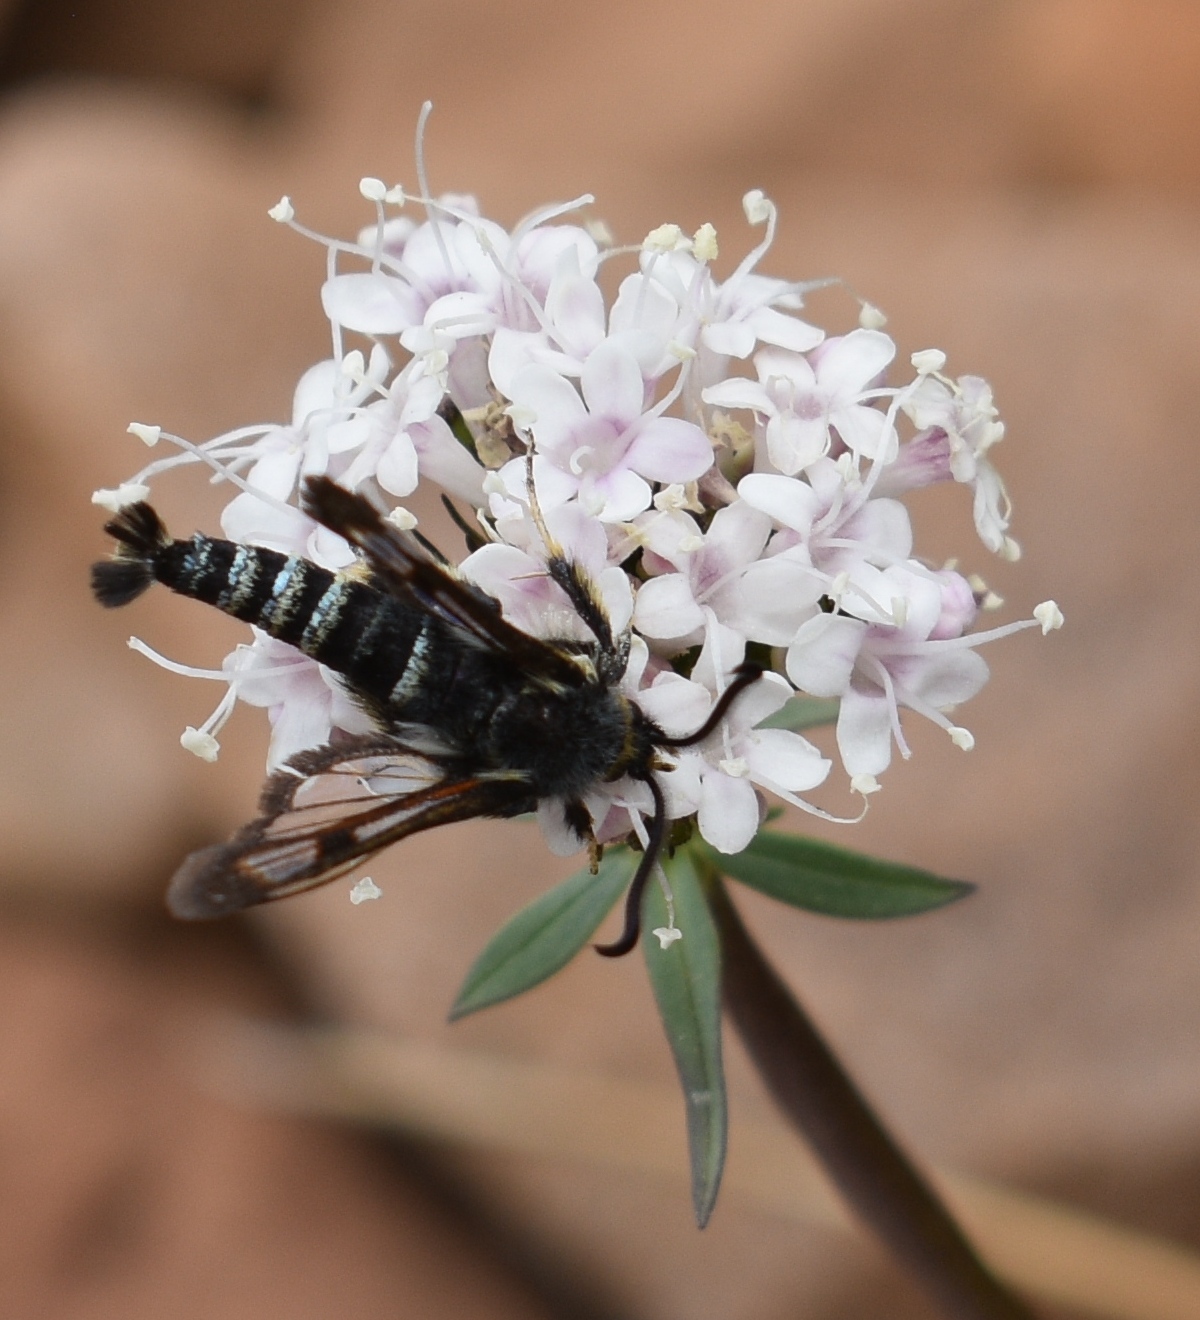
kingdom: Animalia
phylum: Arthropoda
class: Insecta
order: Lepidoptera
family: Sesiidae
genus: Albuna
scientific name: Albuna pyramidalis
